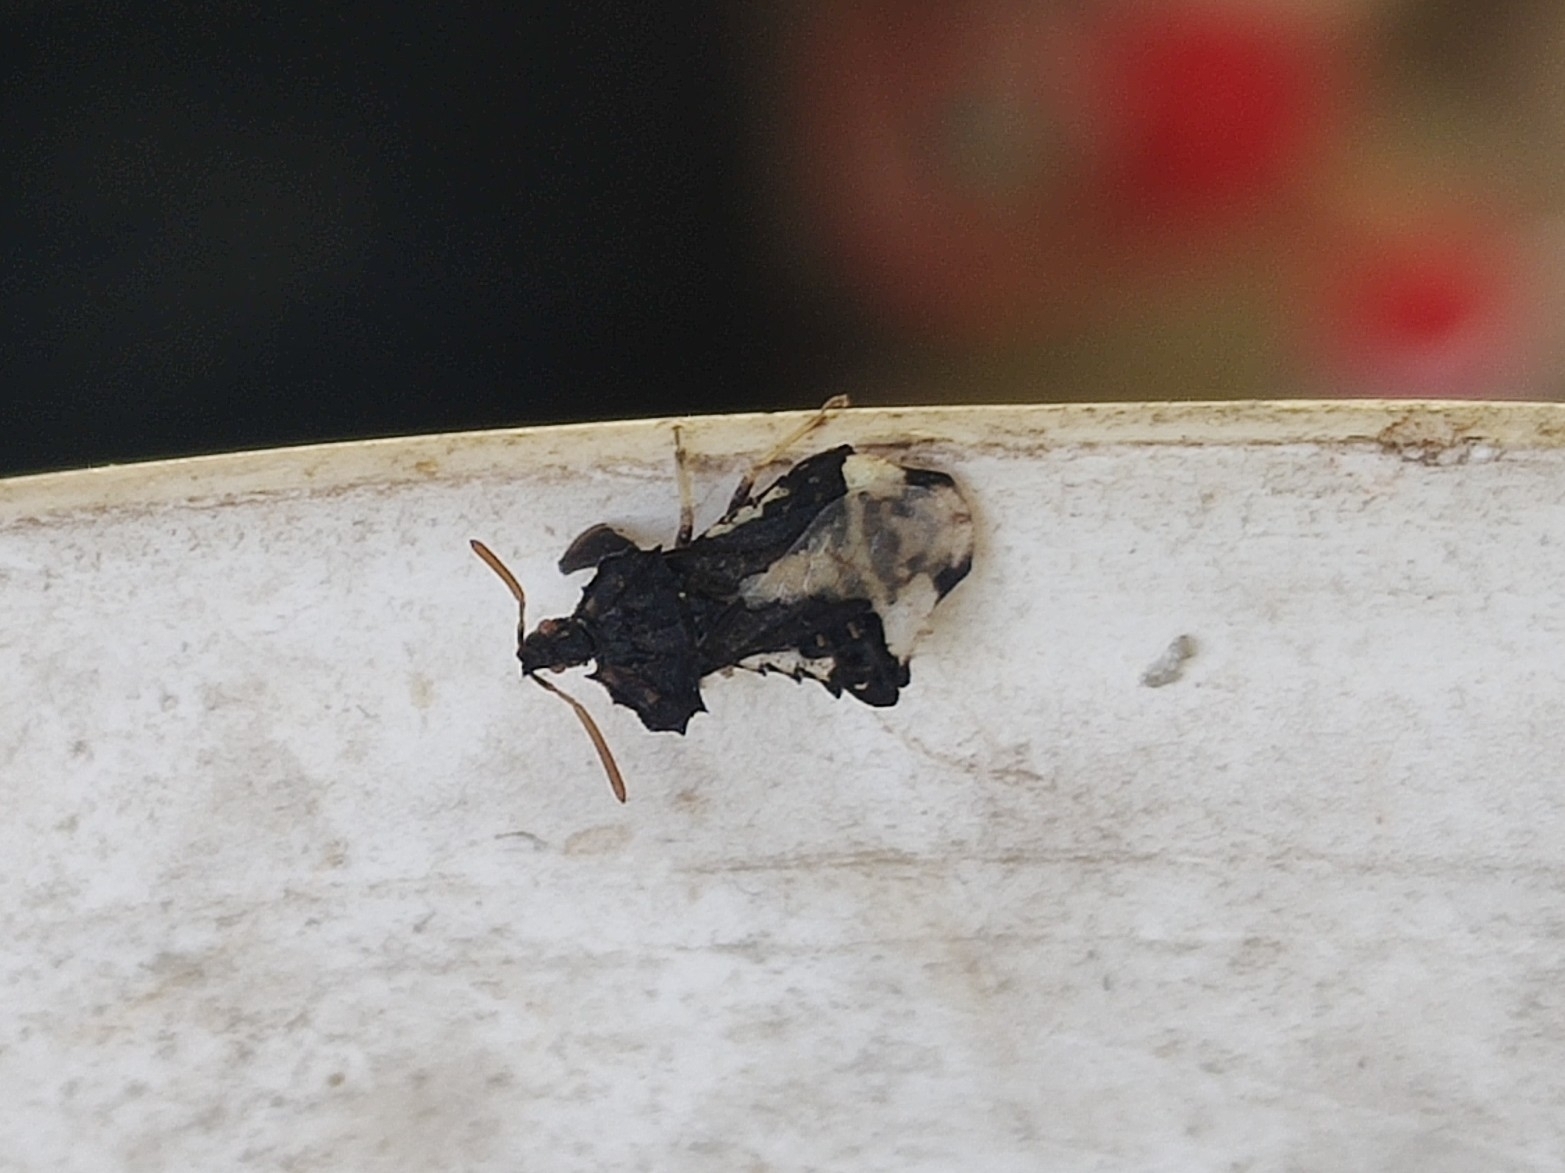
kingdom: Animalia
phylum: Arthropoda
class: Insecta
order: Hemiptera
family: Reduviidae
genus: Phymata
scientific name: Phymata monstrosa
